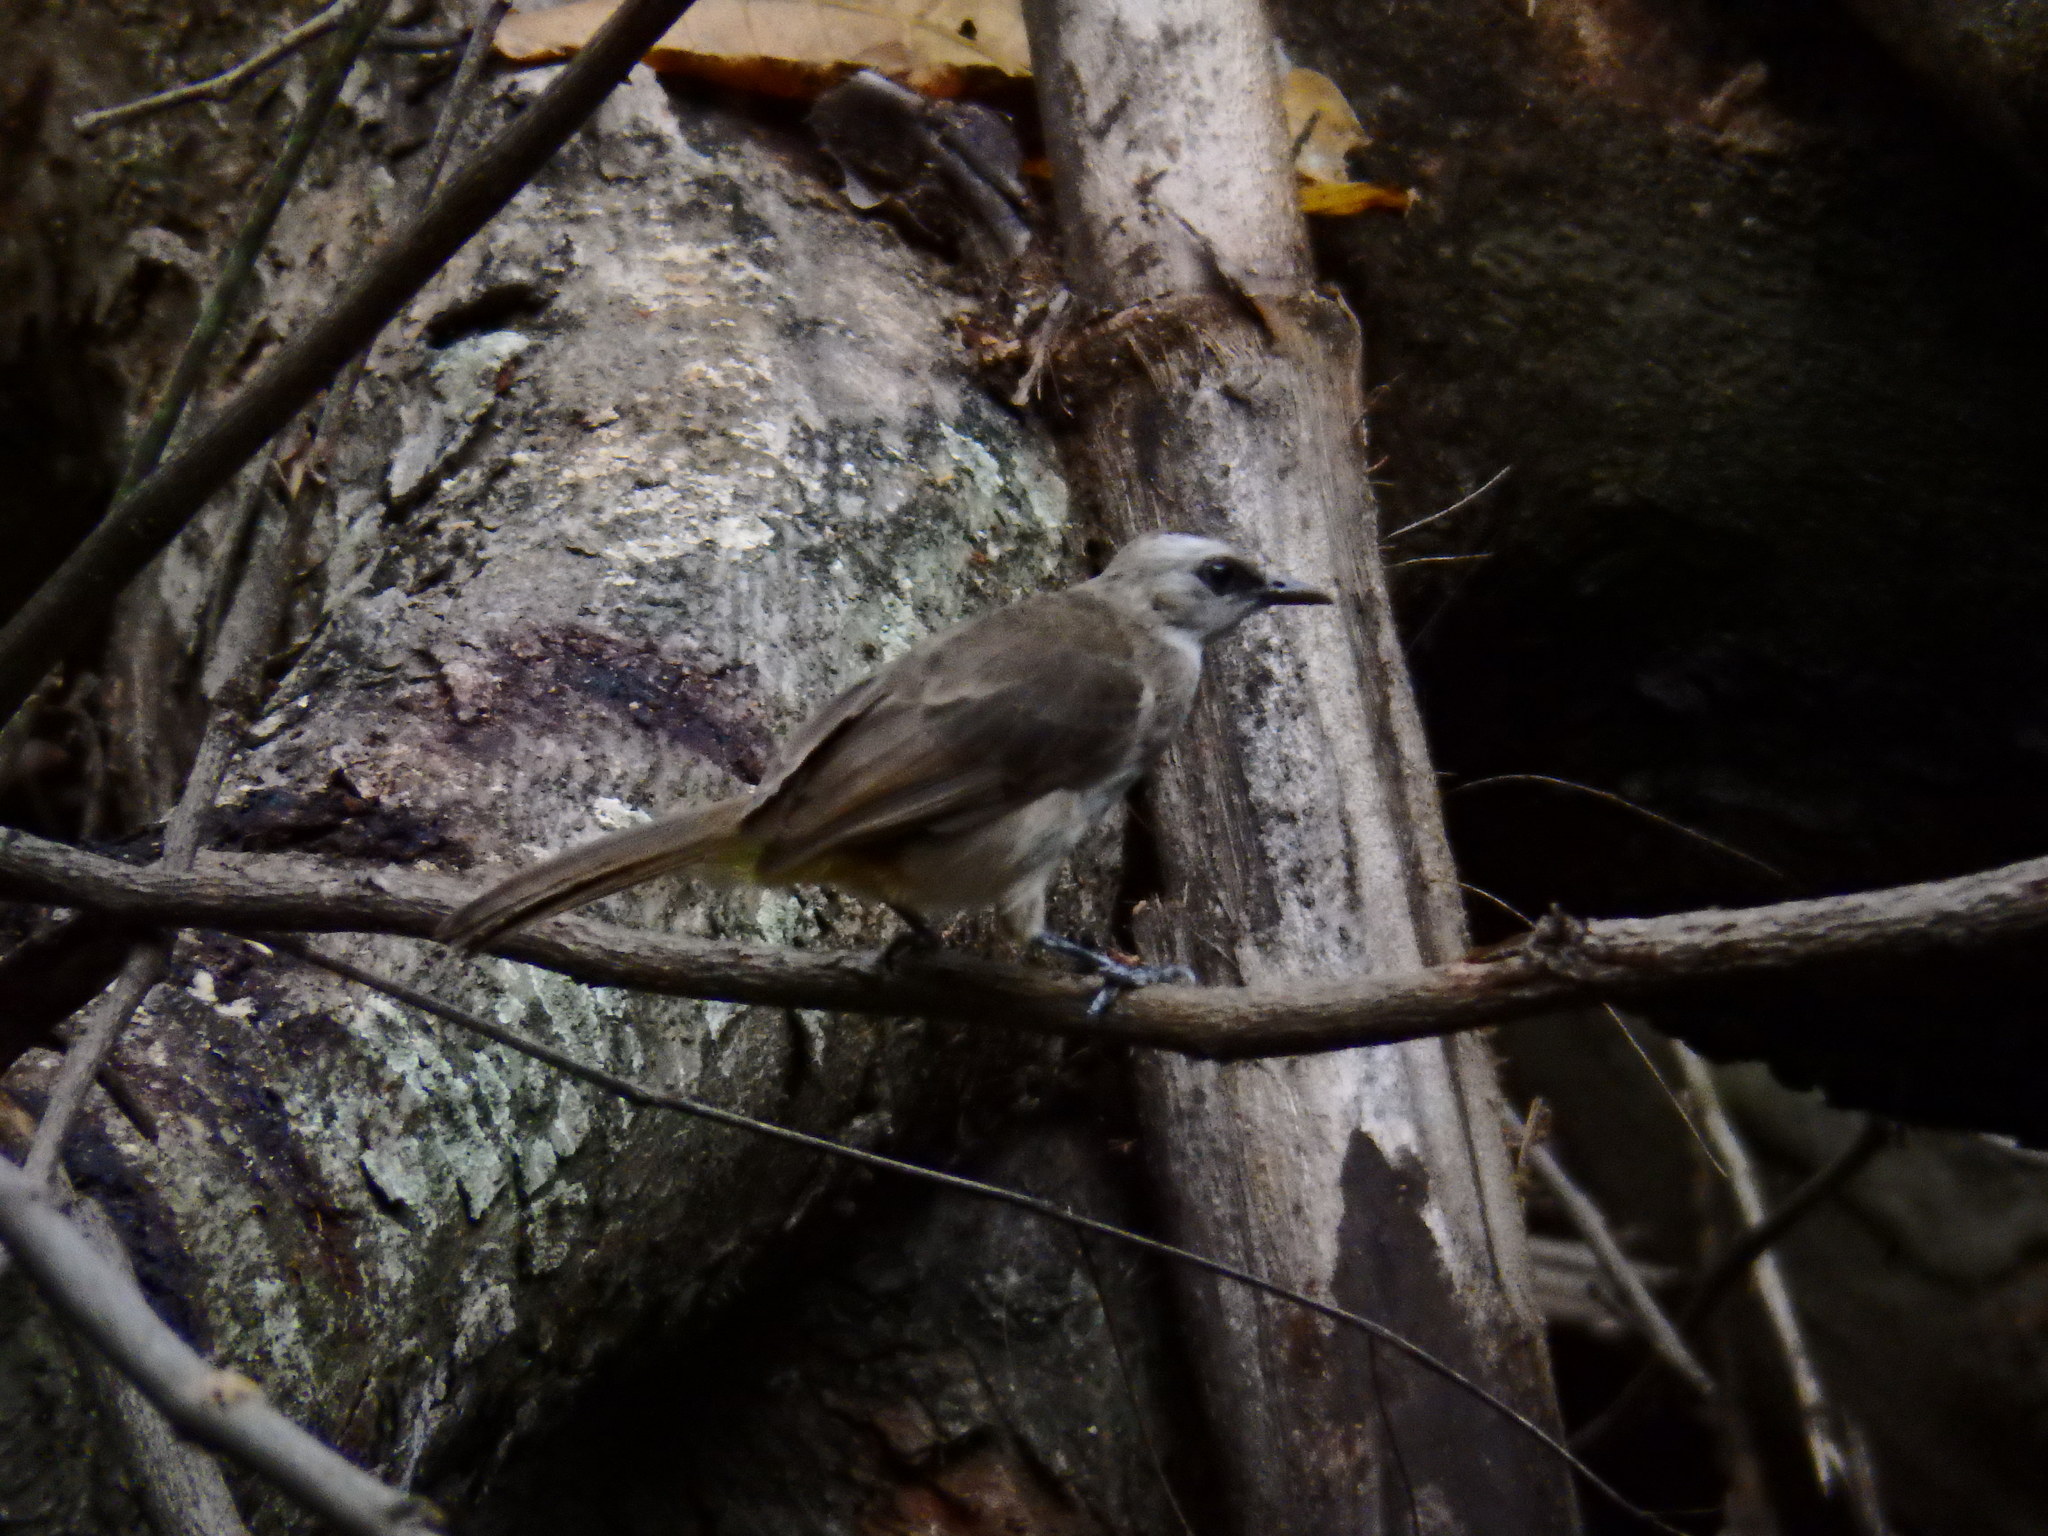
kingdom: Animalia
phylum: Chordata
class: Aves
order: Passeriformes
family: Pycnonotidae
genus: Pycnonotus
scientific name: Pycnonotus goiavier
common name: Yellow-vented bulbul
